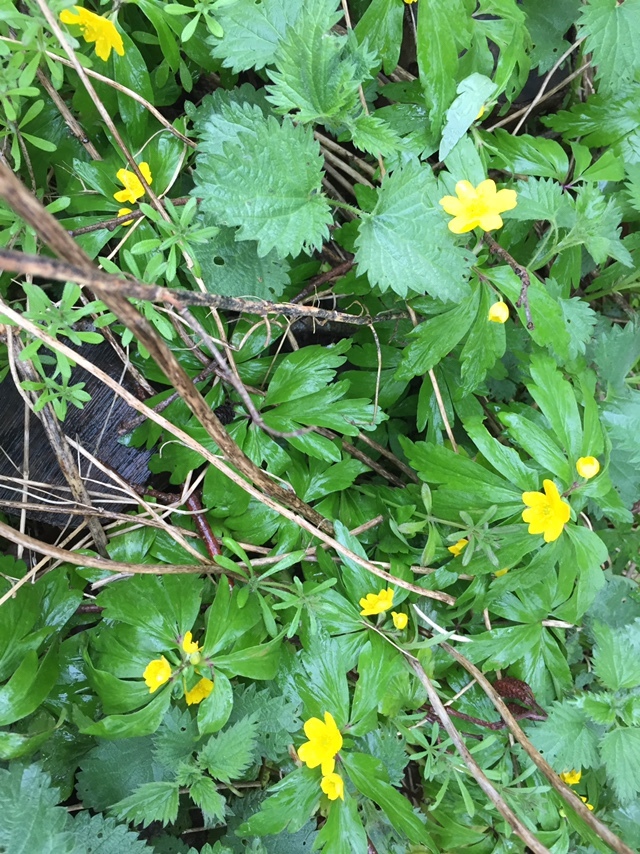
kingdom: Plantae
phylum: Tracheophyta
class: Magnoliopsida
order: Ranunculales
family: Ranunculaceae
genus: Anemone
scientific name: Anemone ranunculoides
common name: Yellow anemone
